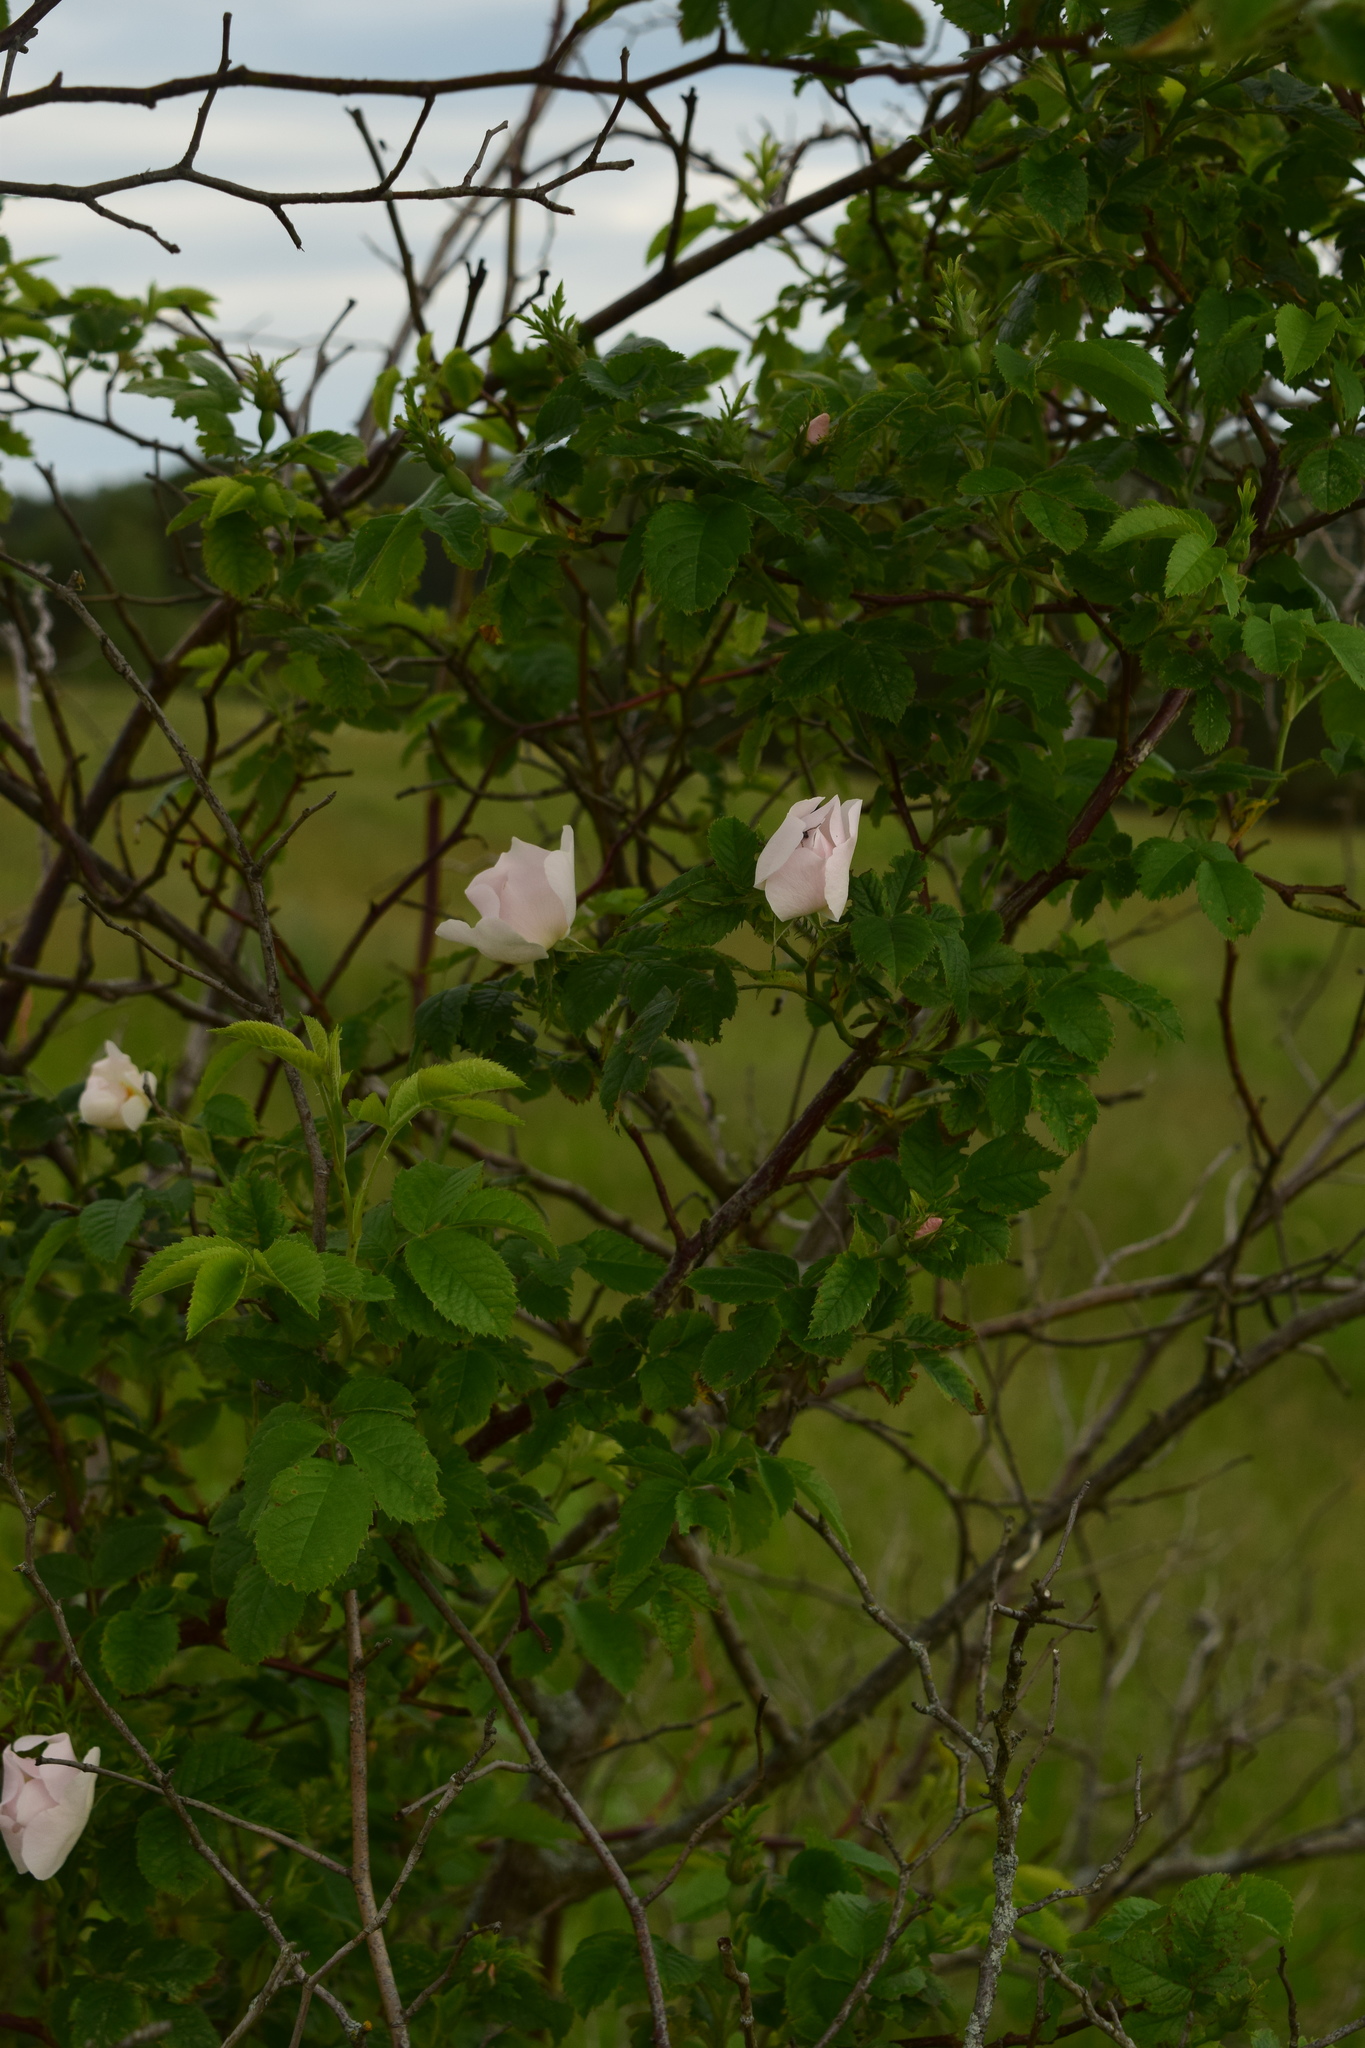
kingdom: Plantae
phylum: Tracheophyta
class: Magnoliopsida
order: Rosales
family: Rosaceae
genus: Rosa
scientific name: Rosa
